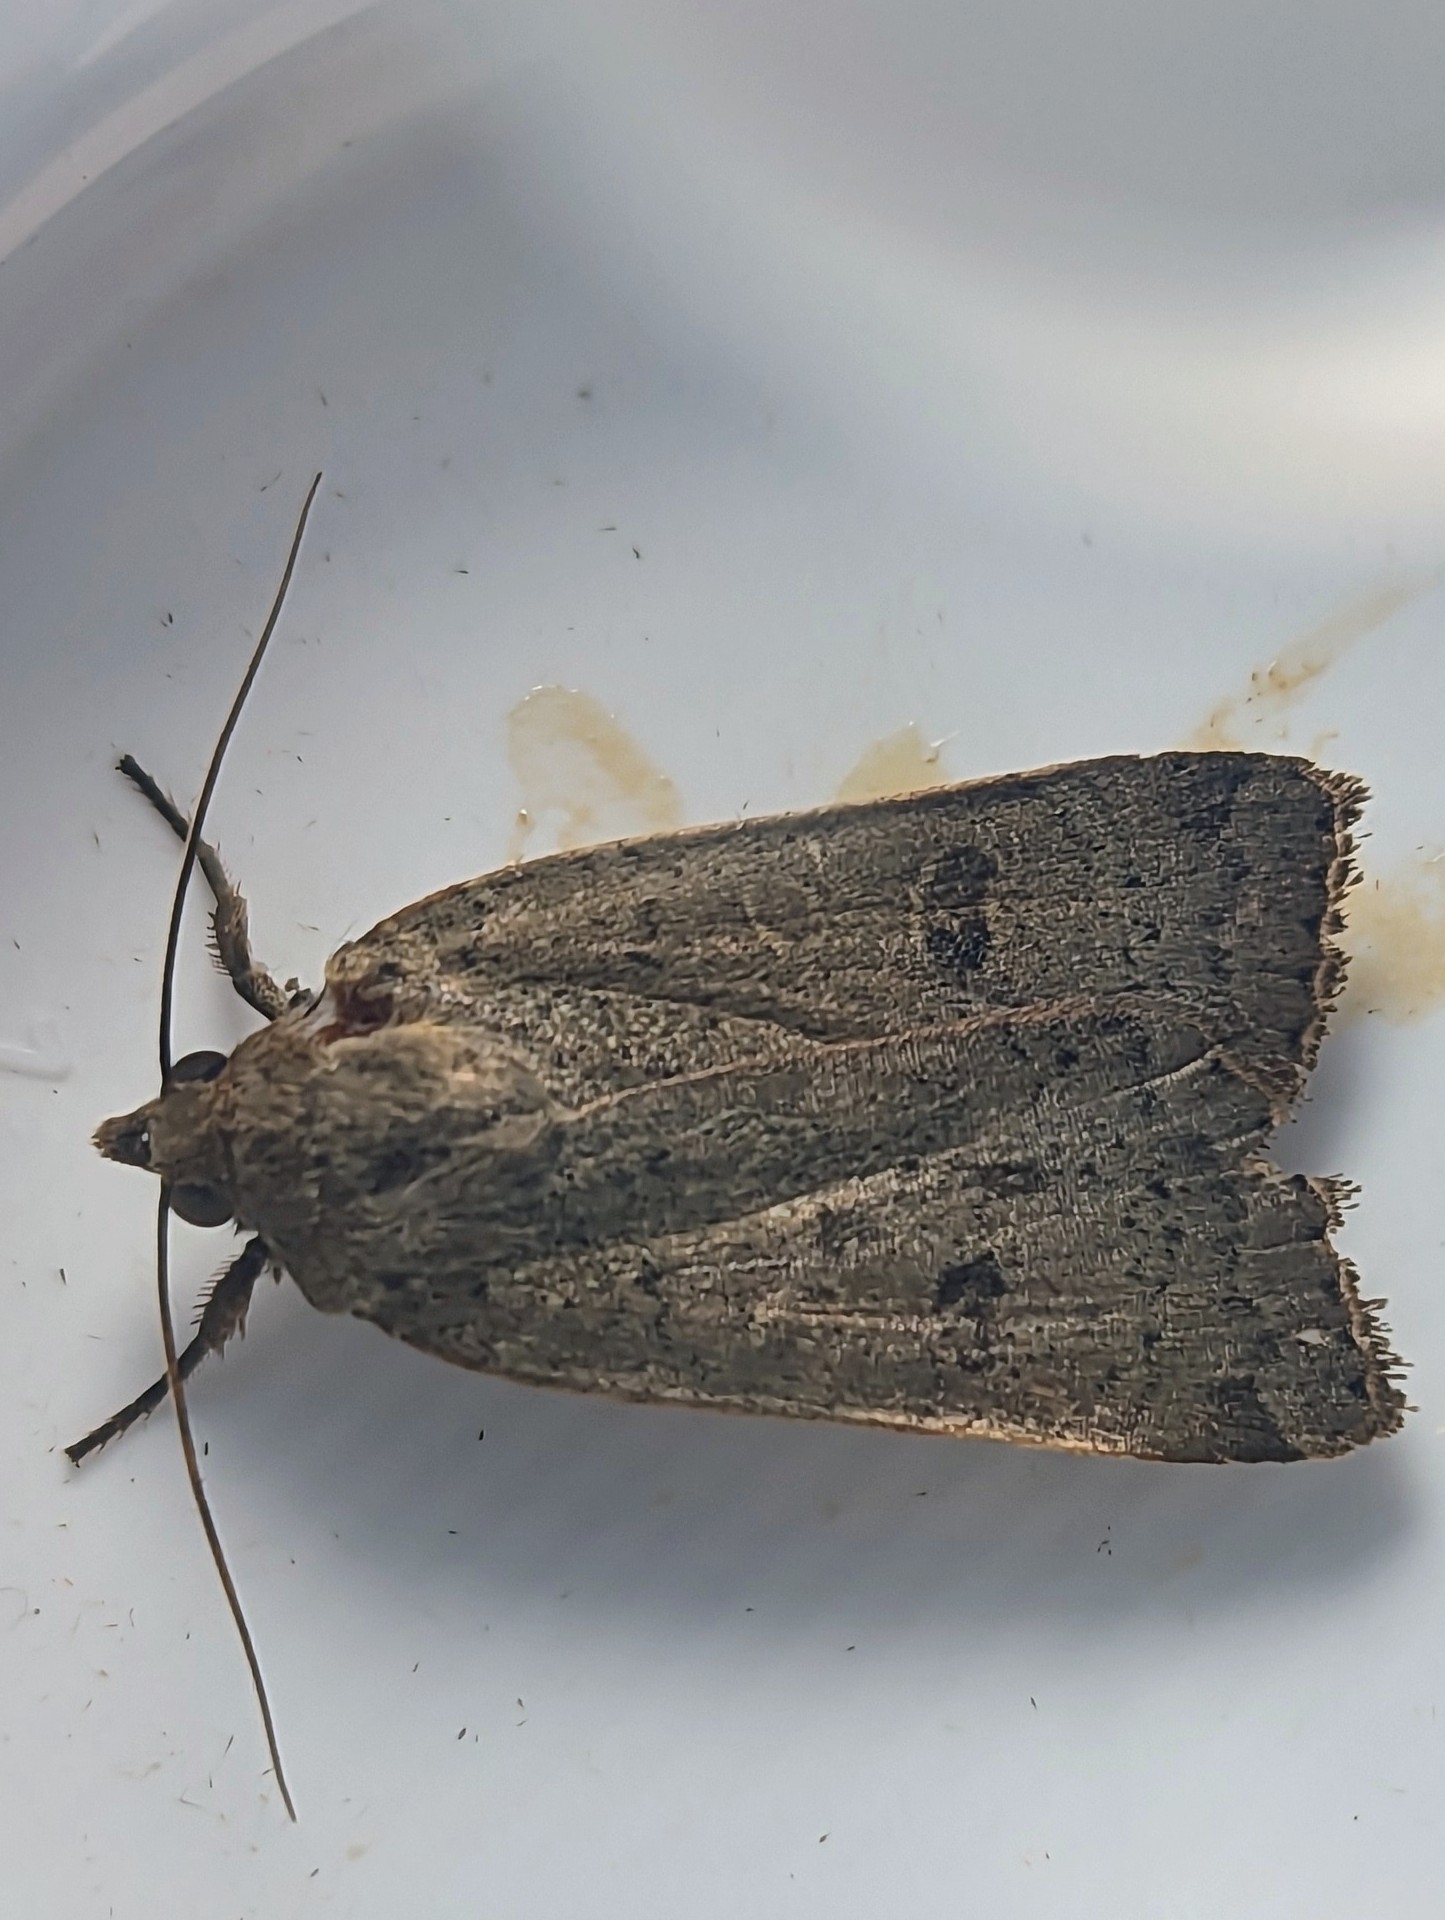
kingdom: Animalia
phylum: Arthropoda
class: Insecta
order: Lepidoptera
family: Noctuidae
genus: Noctua
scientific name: Noctua comes
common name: Lesser yellow underwing
